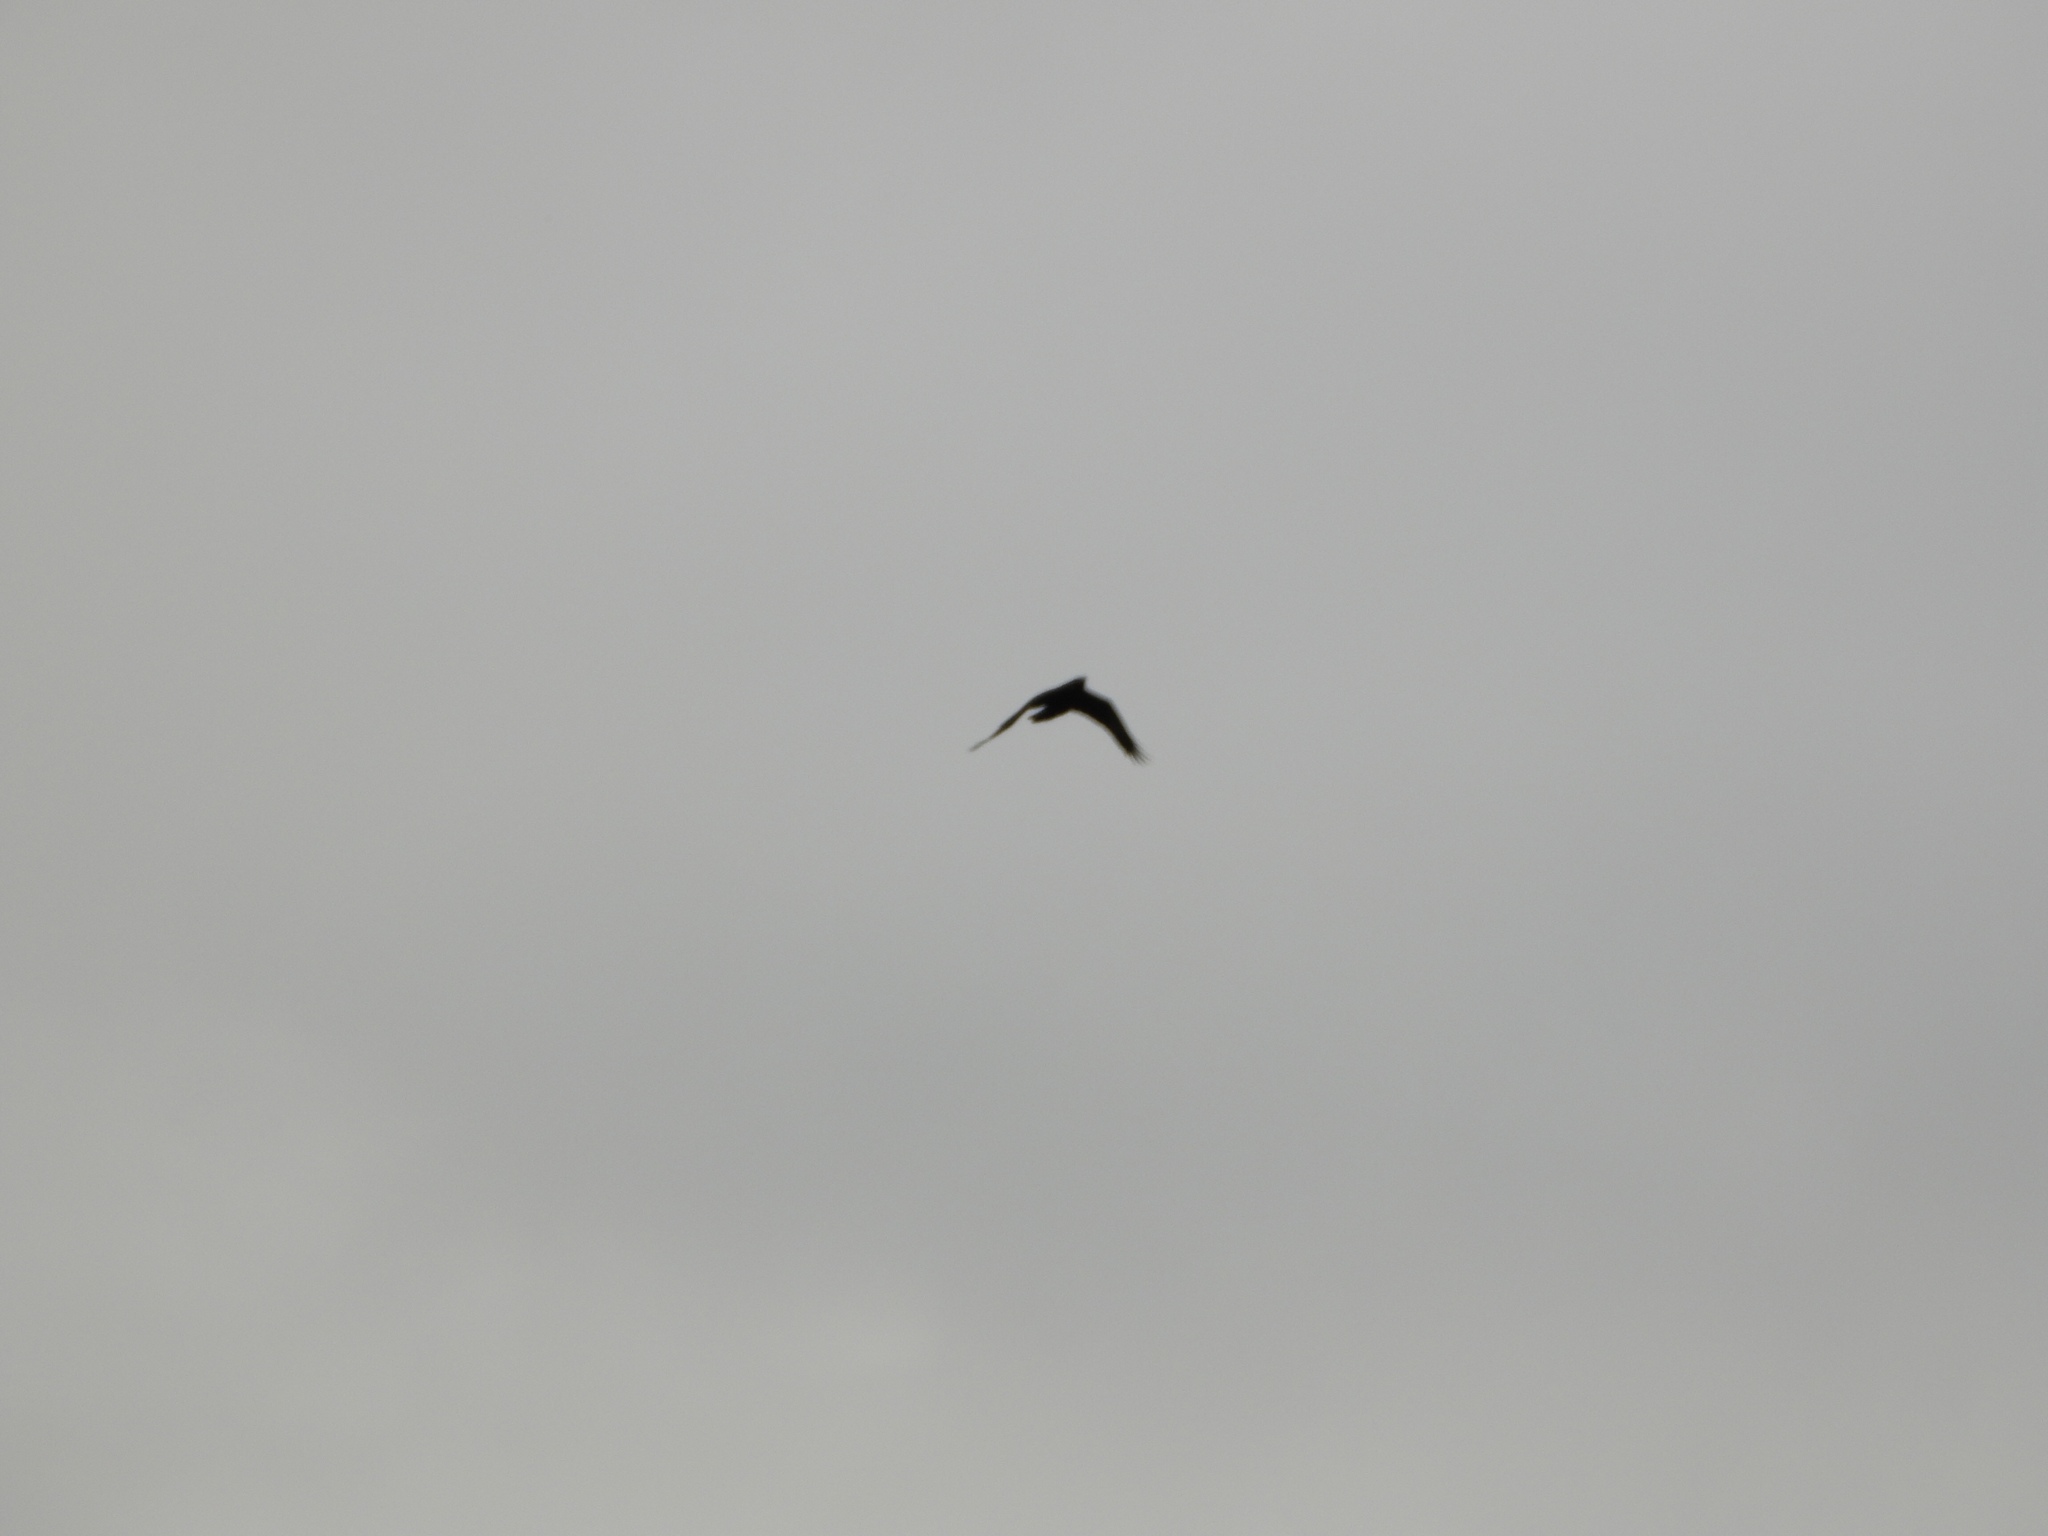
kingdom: Animalia
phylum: Chordata
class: Aves
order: Passeriformes
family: Corvidae
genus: Corvus
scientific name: Corvus corax
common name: Common raven
